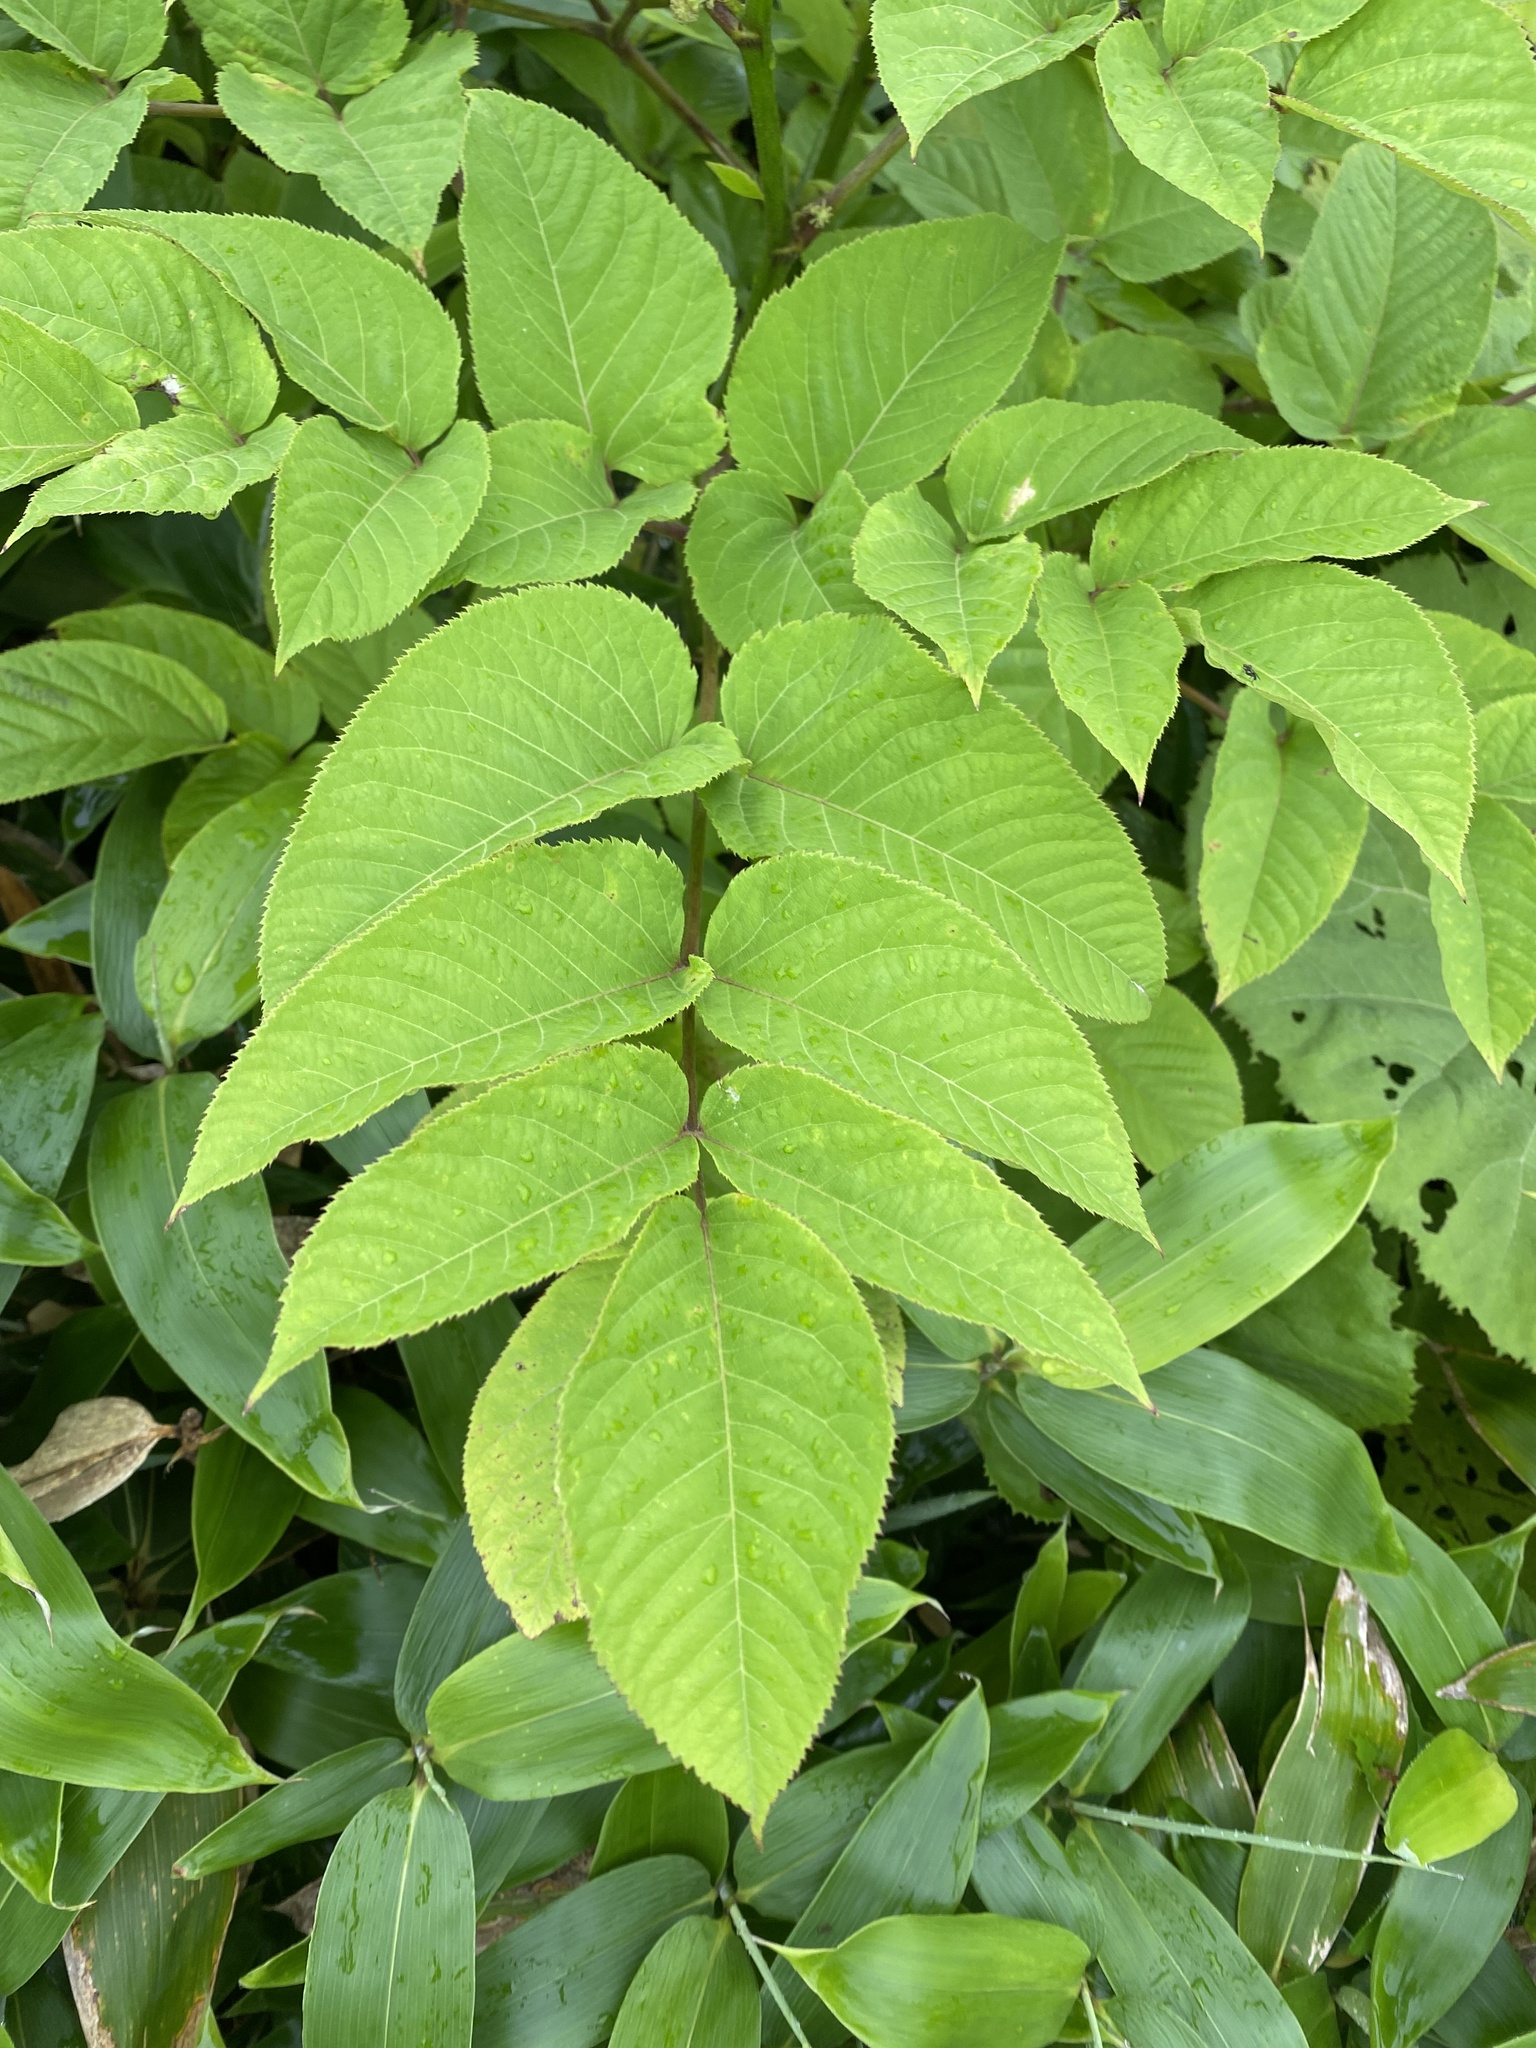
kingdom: Plantae
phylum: Tracheophyta
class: Magnoliopsida
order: Apiales
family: Araliaceae
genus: Aralia
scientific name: Aralia cordata
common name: Udo
